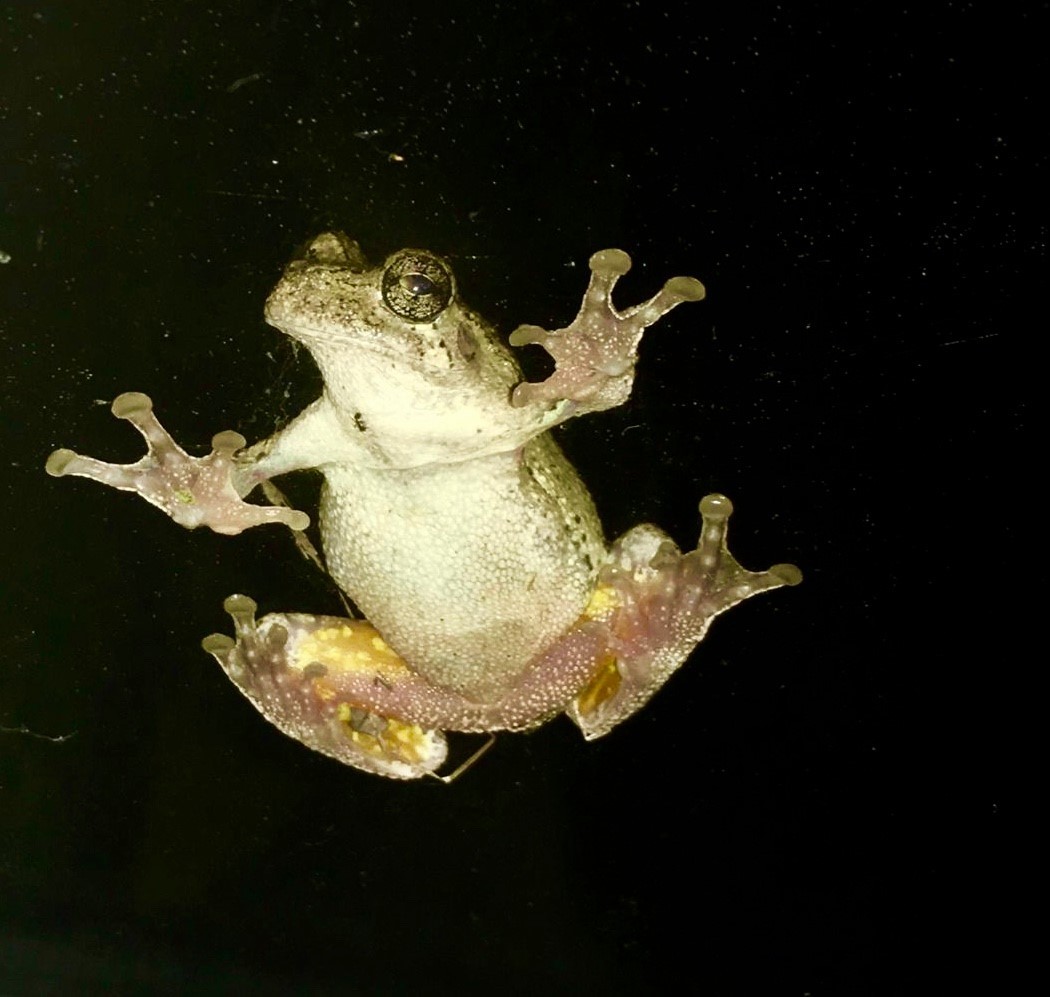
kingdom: Animalia
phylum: Chordata
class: Amphibia
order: Anura
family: Hylidae
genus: Hyla
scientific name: Hyla
